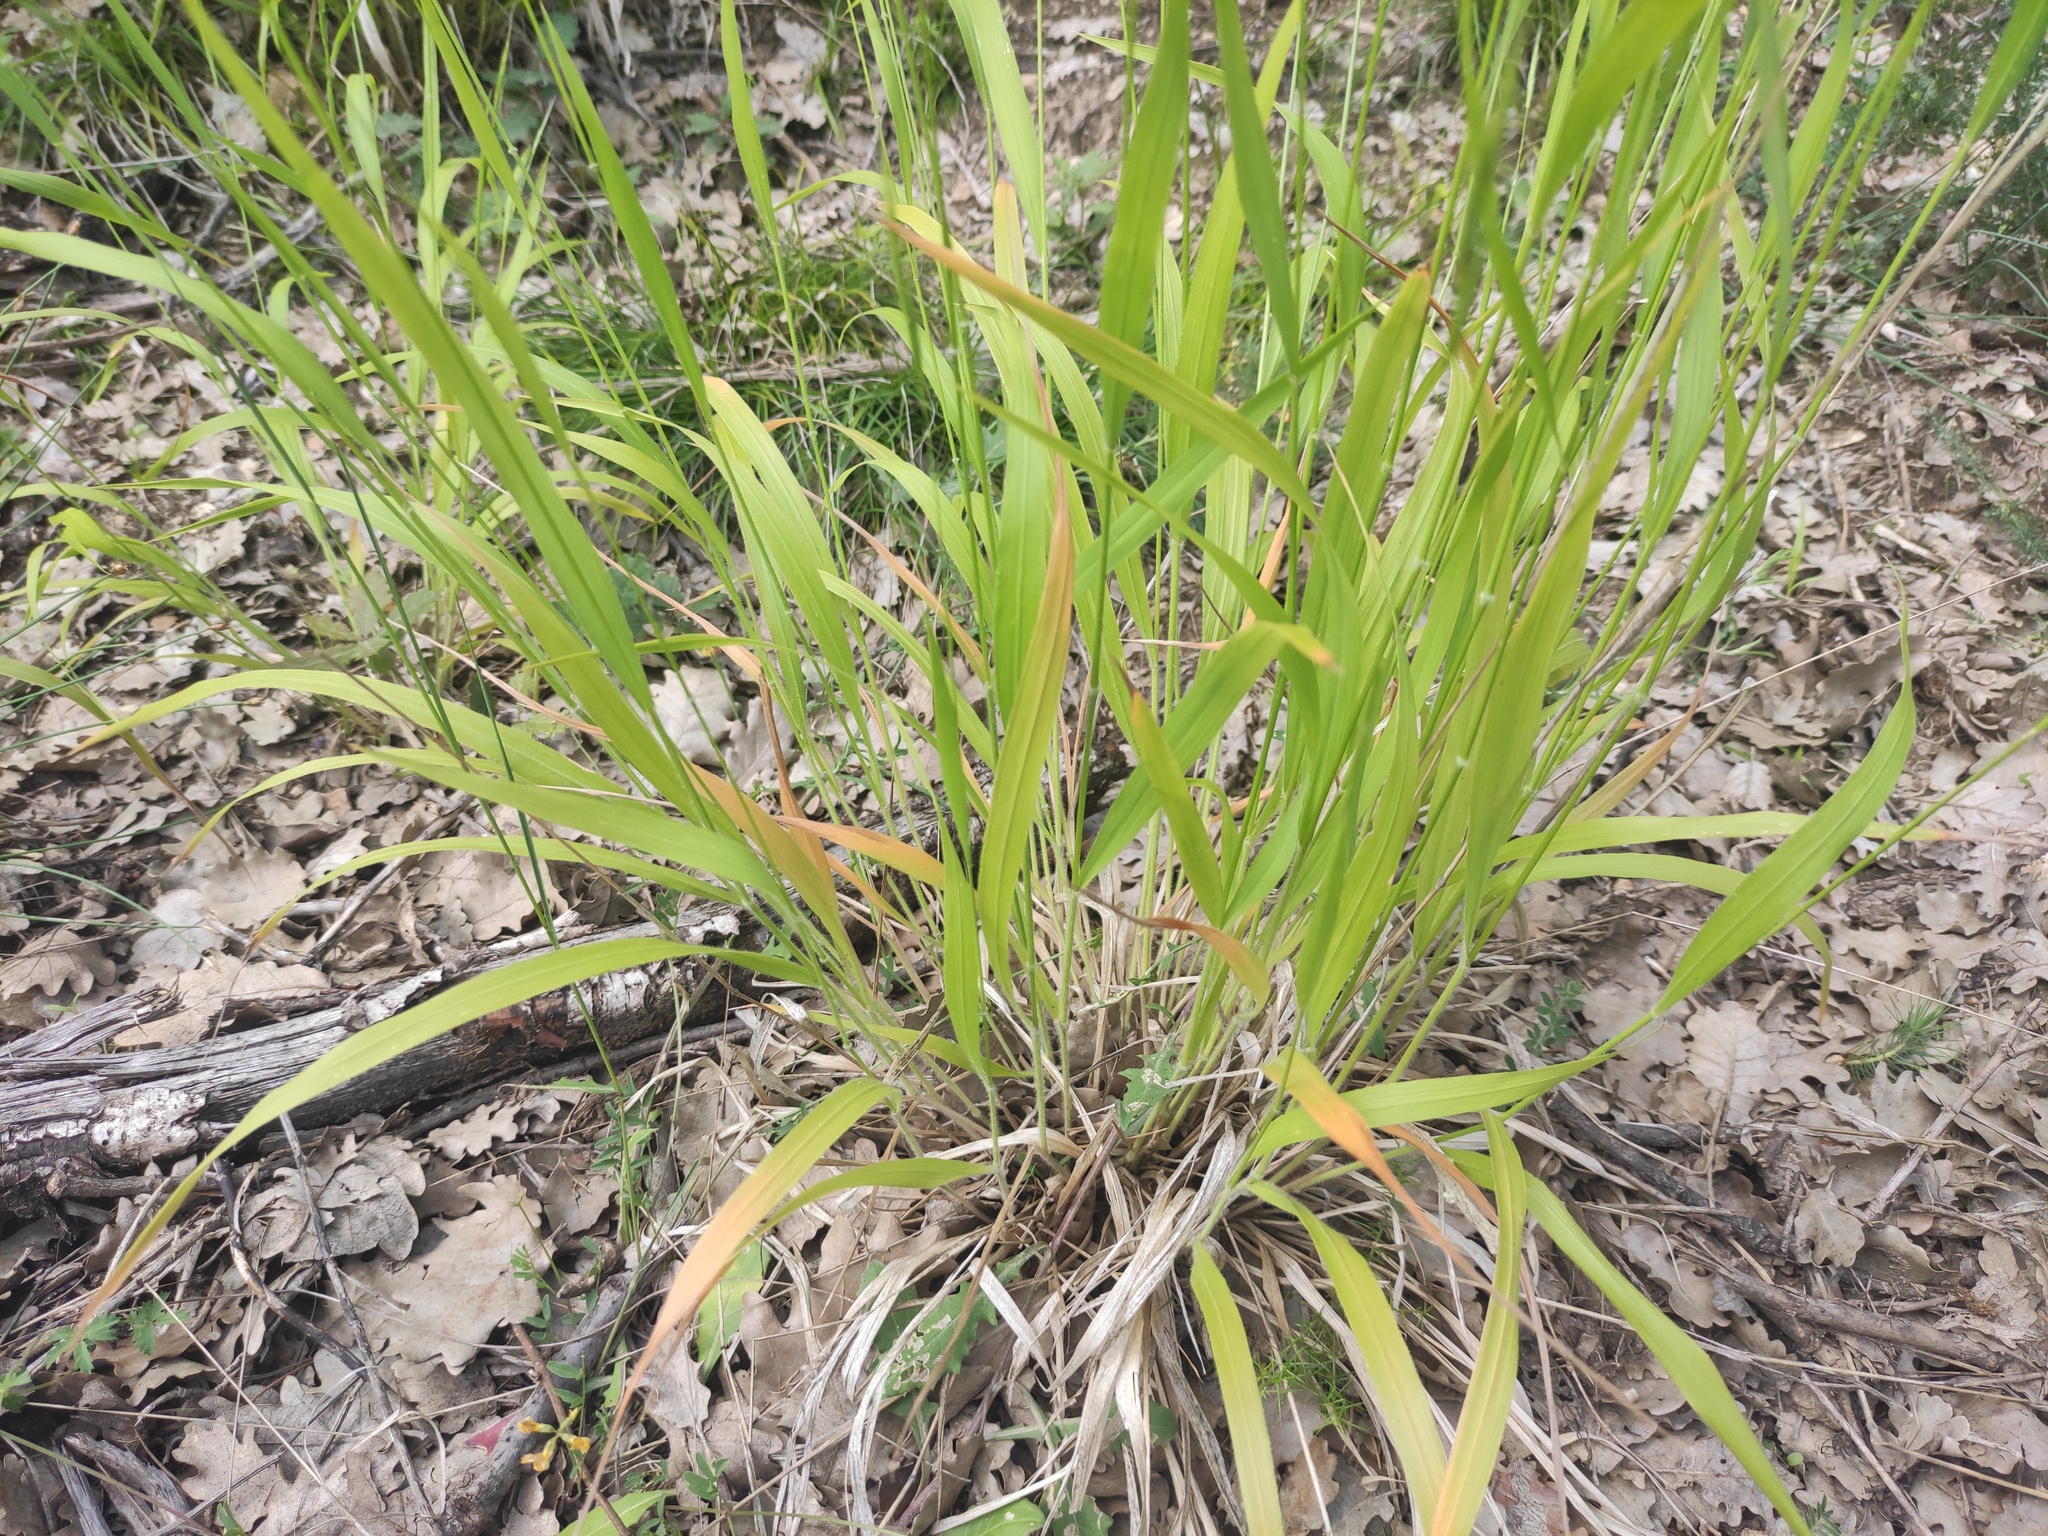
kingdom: Plantae
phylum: Tracheophyta
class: Liliopsida
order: Poales
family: Poaceae
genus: Brachypodium
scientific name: Brachypodium sylvaticum
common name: False-brome
